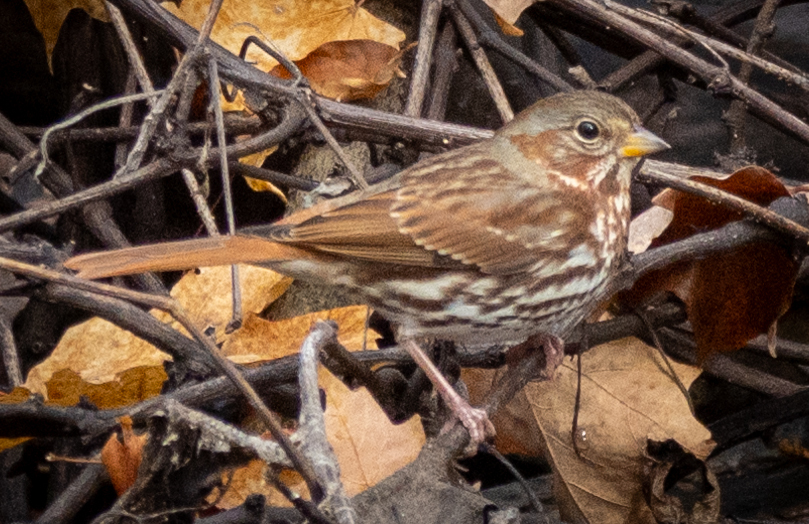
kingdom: Animalia
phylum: Chordata
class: Aves
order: Passeriformes
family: Passerellidae
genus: Passerella
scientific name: Passerella iliaca
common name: Fox sparrow
